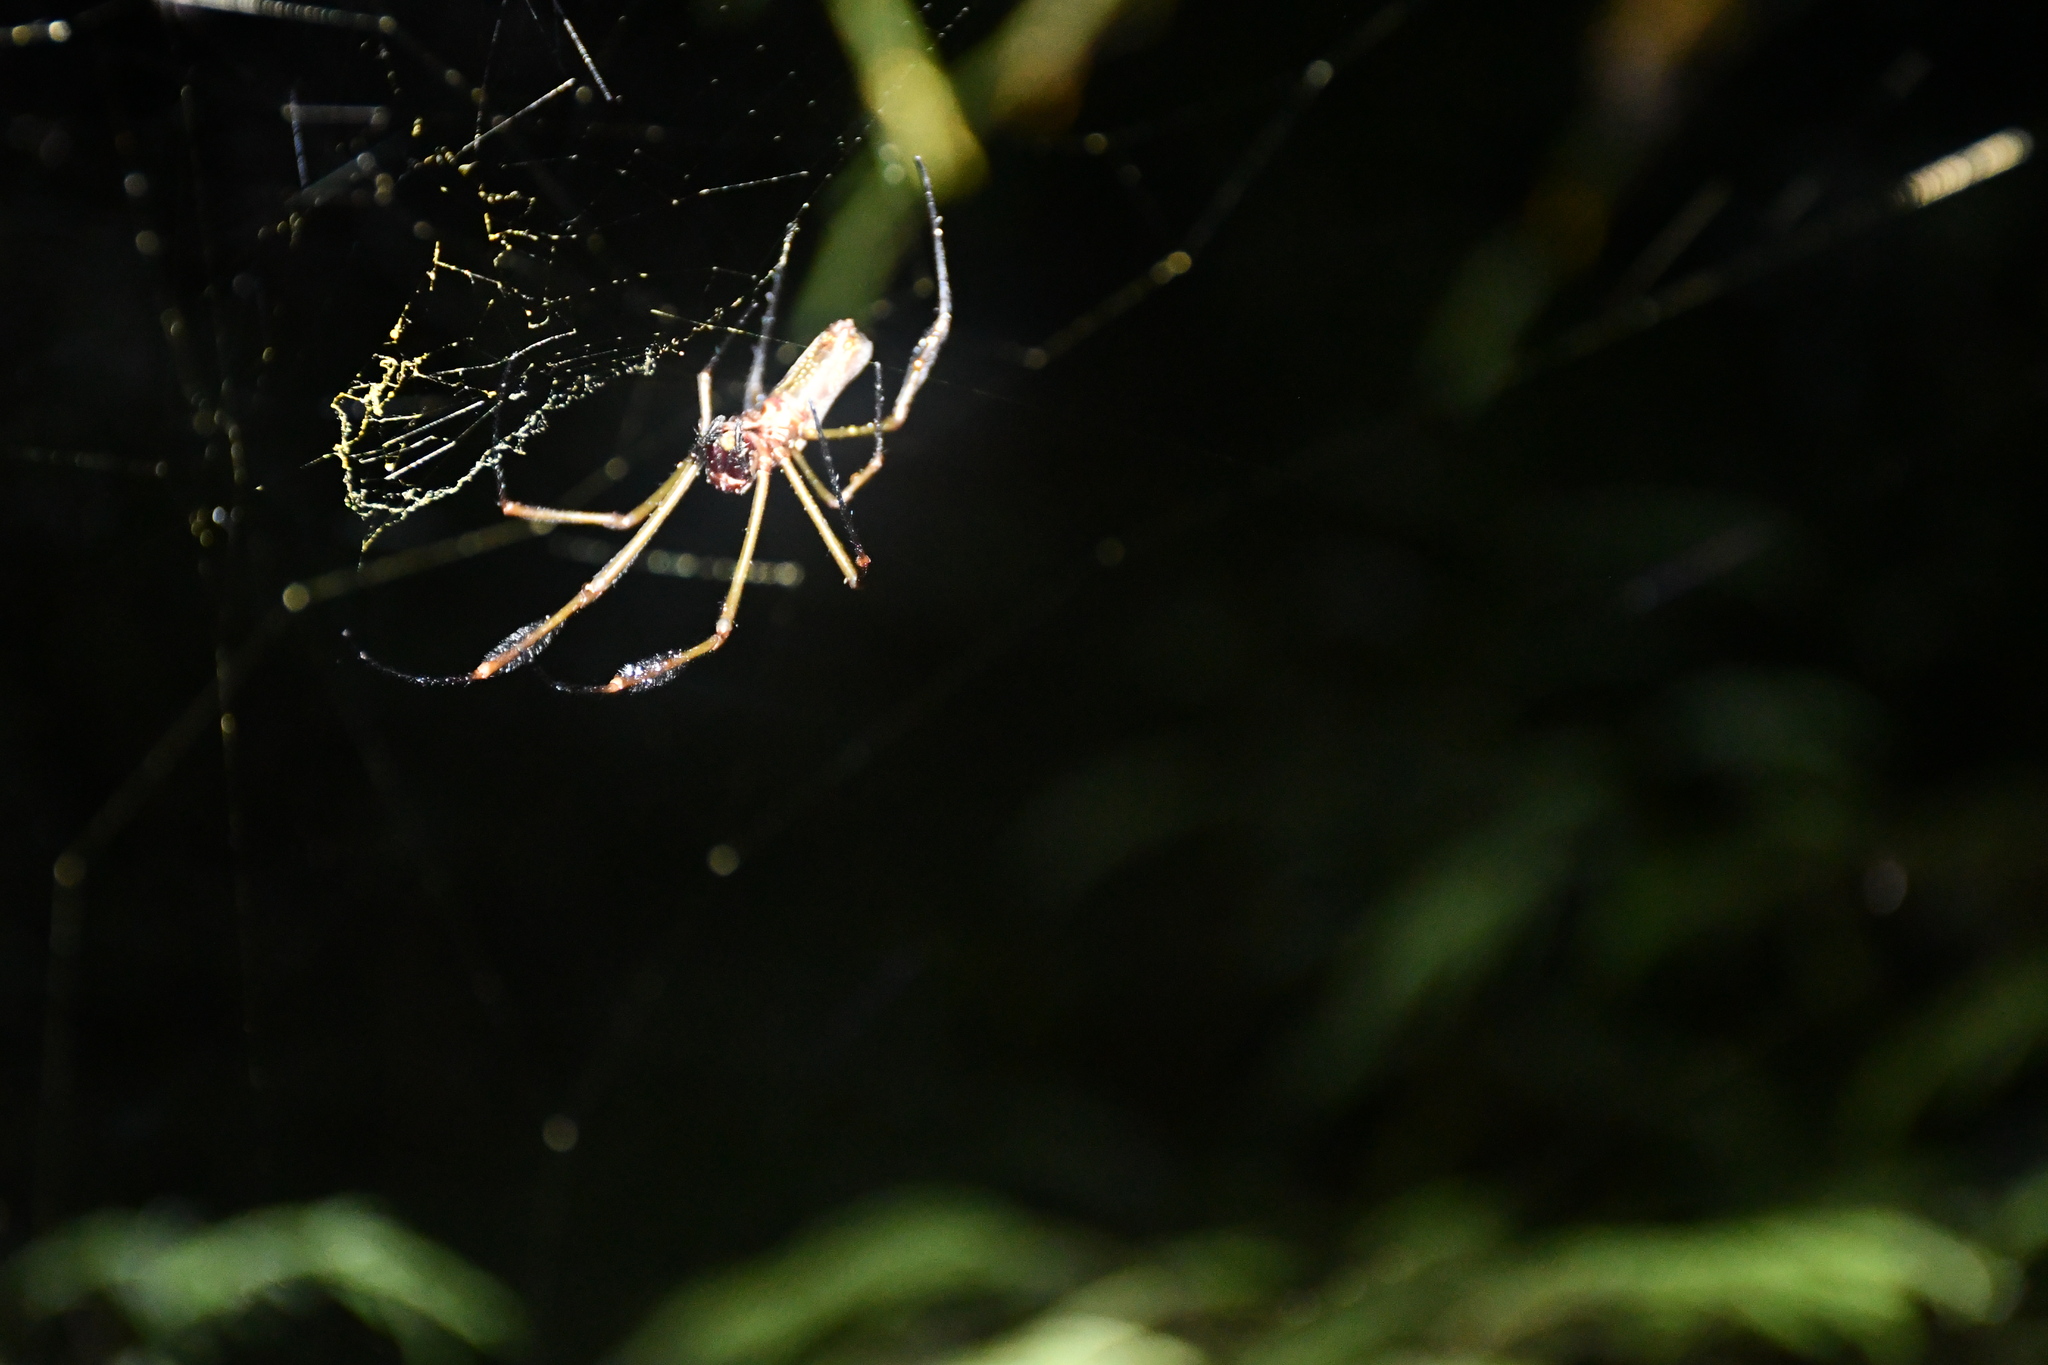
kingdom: Animalia
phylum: Arthropoda
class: Arachnida
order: Araneae
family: Araneidae
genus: Trichonephila
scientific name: Trichonephila clavipes
